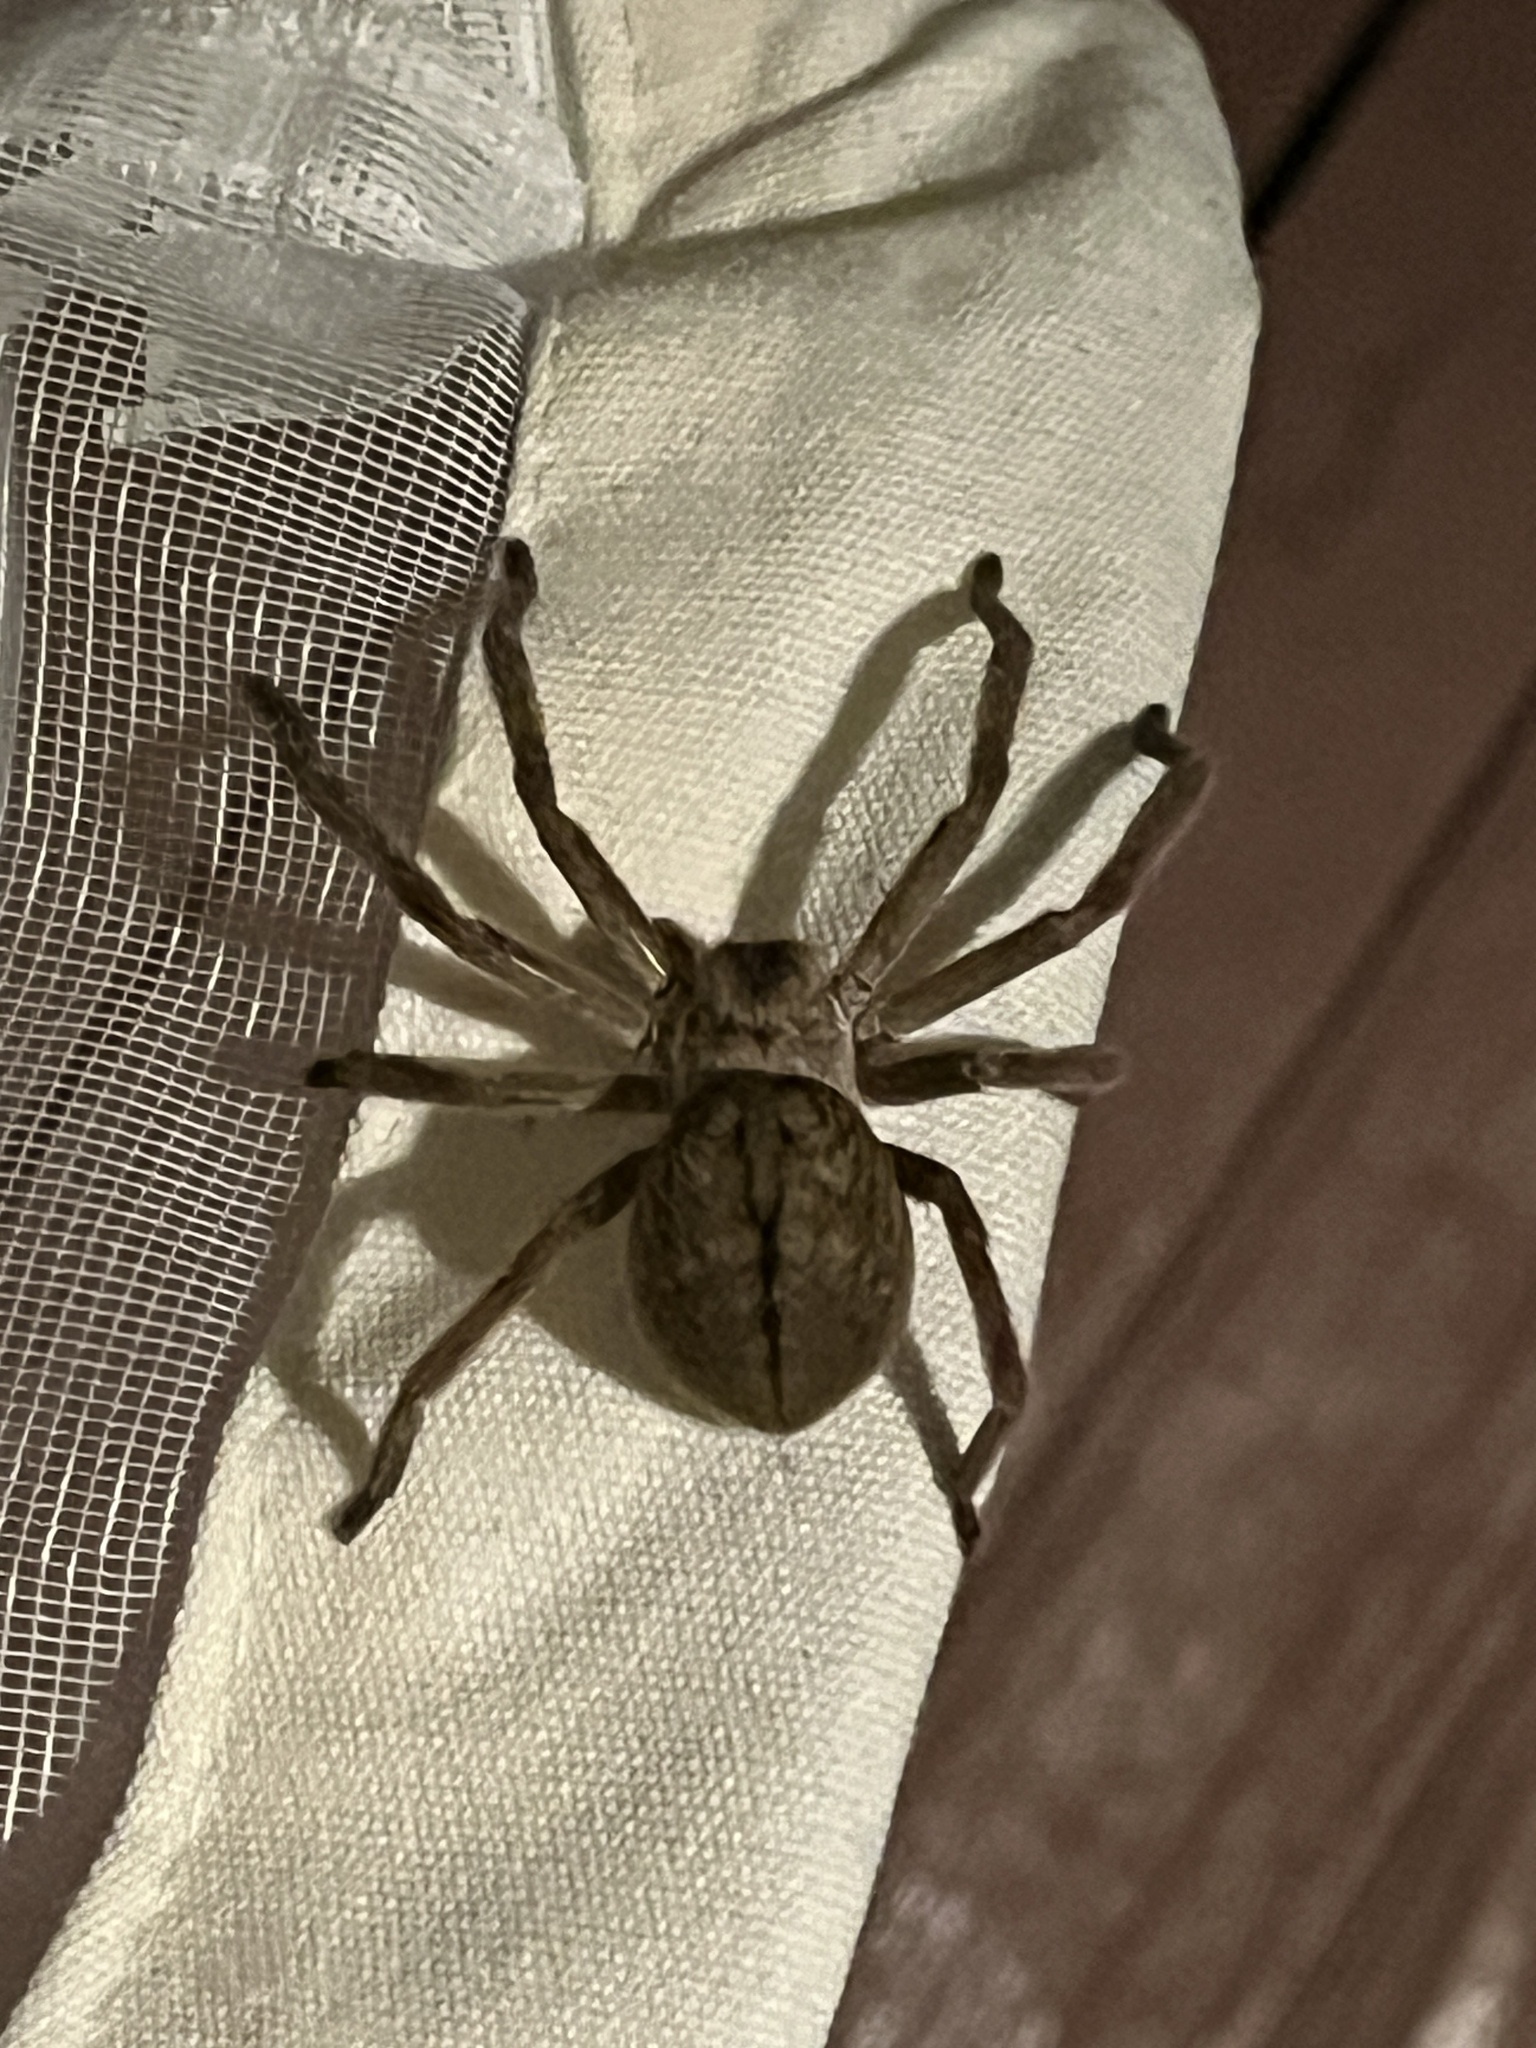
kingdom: Animalia
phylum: Arthropoda
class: Arachnida
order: Araneae
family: Sparassidae
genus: Olios
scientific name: Olios giganteus
